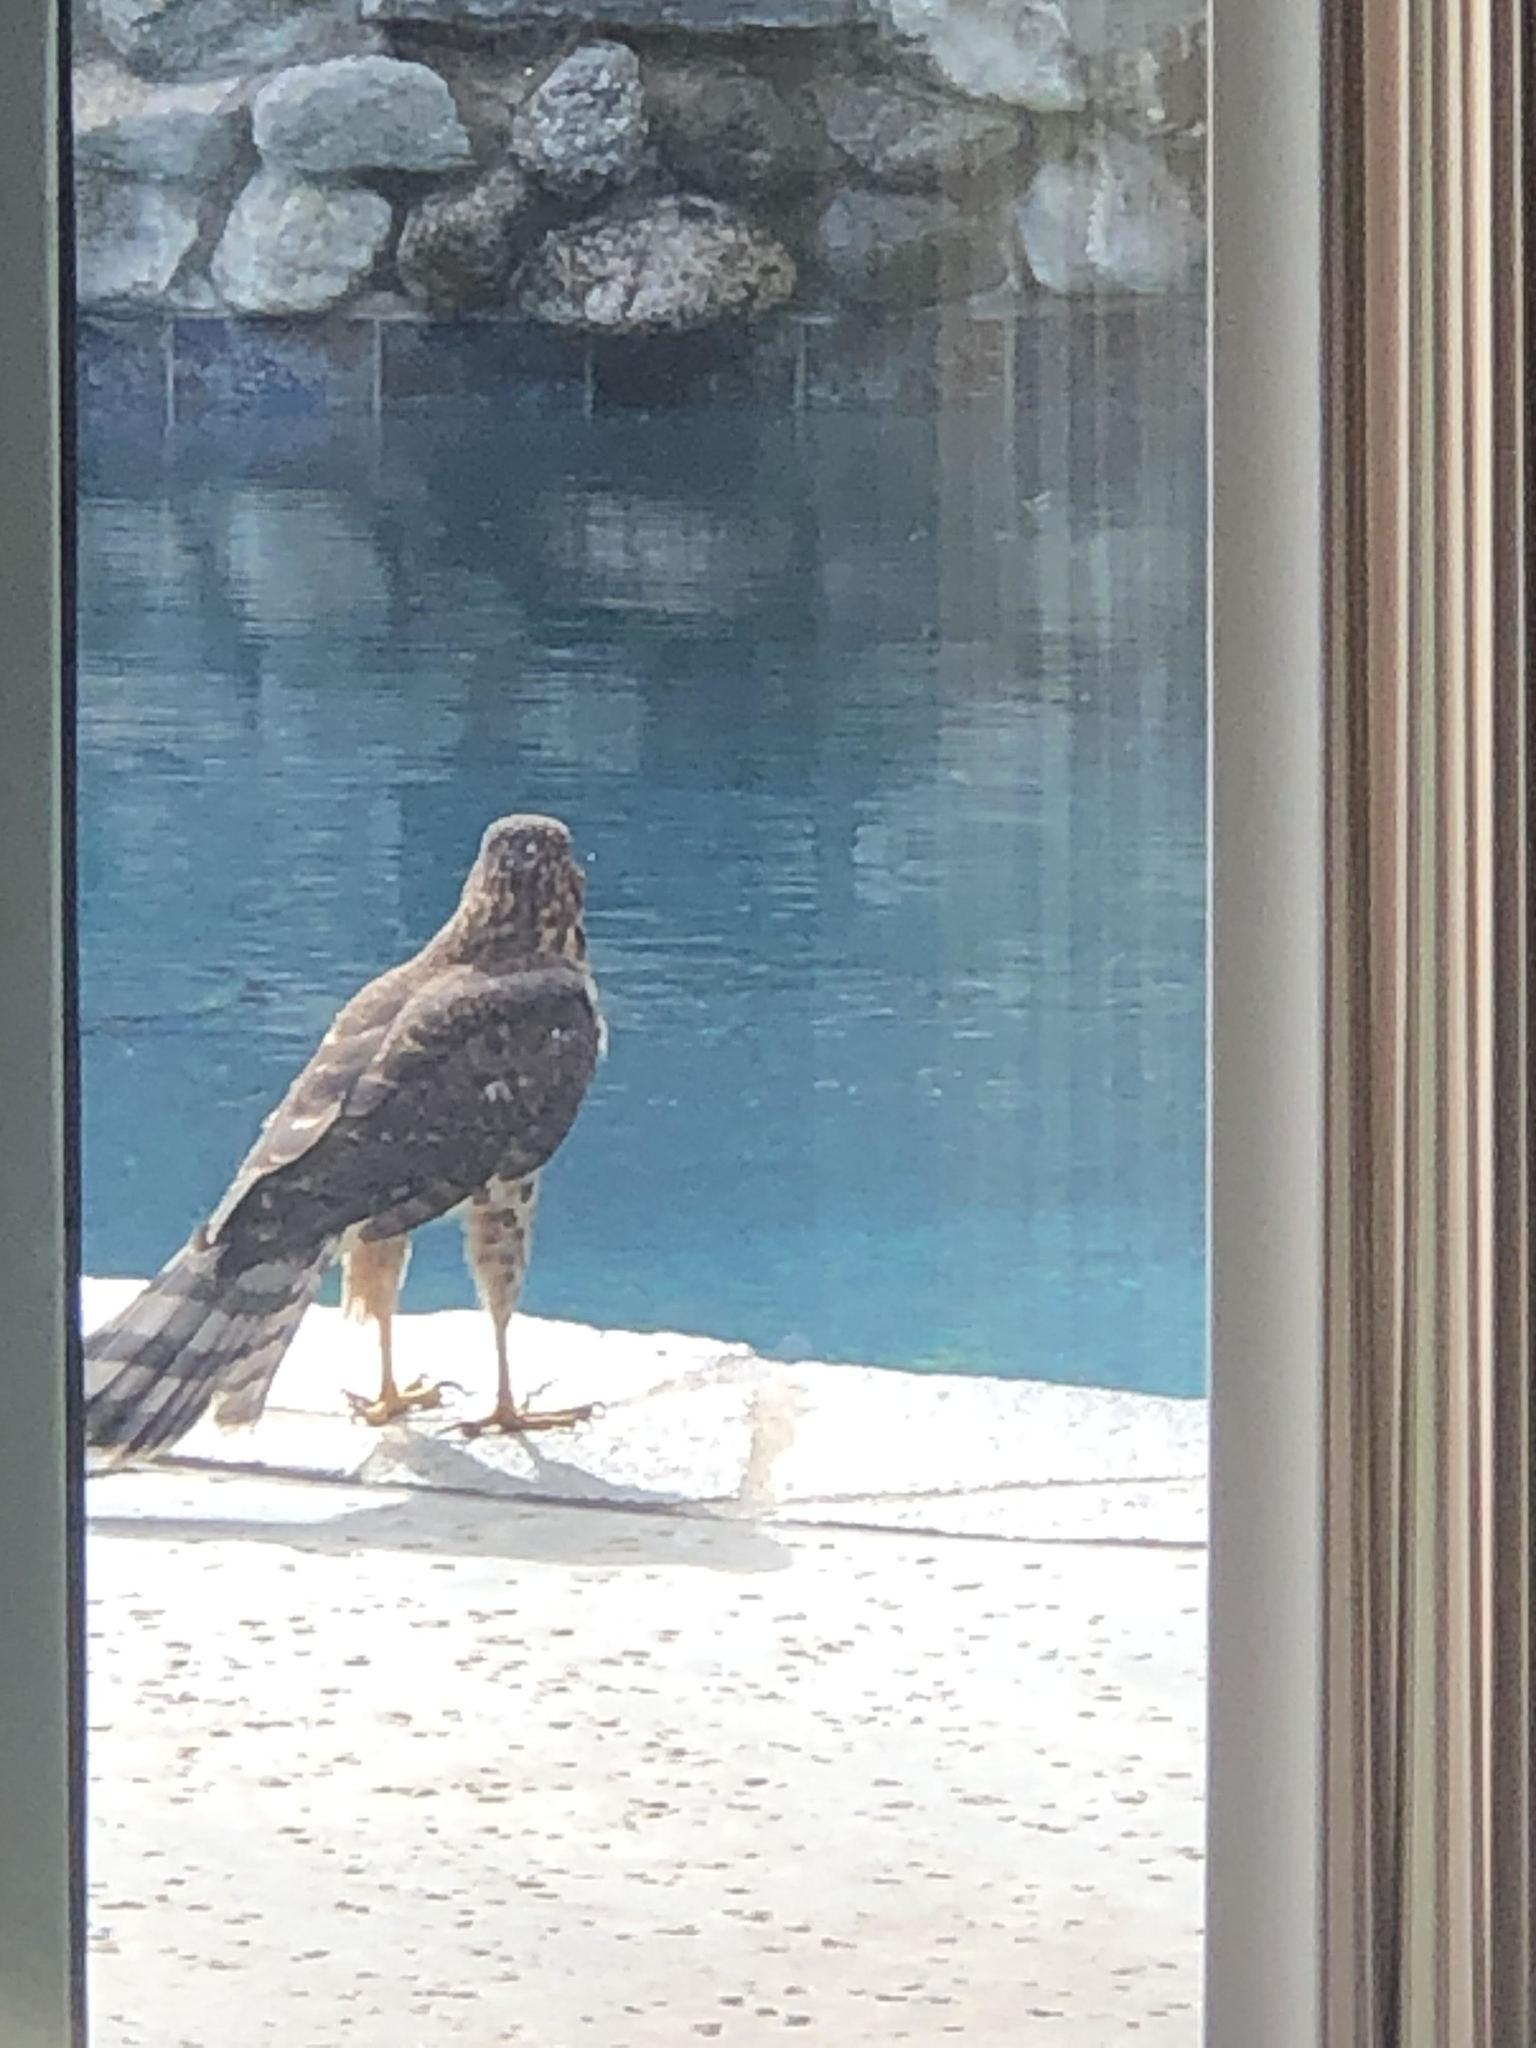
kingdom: Animalia
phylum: Chordata
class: Aves
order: Accipitriformes
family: Accipitridae
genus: Accipiter
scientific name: Accipiter cooperii
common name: Cooper's hawk
